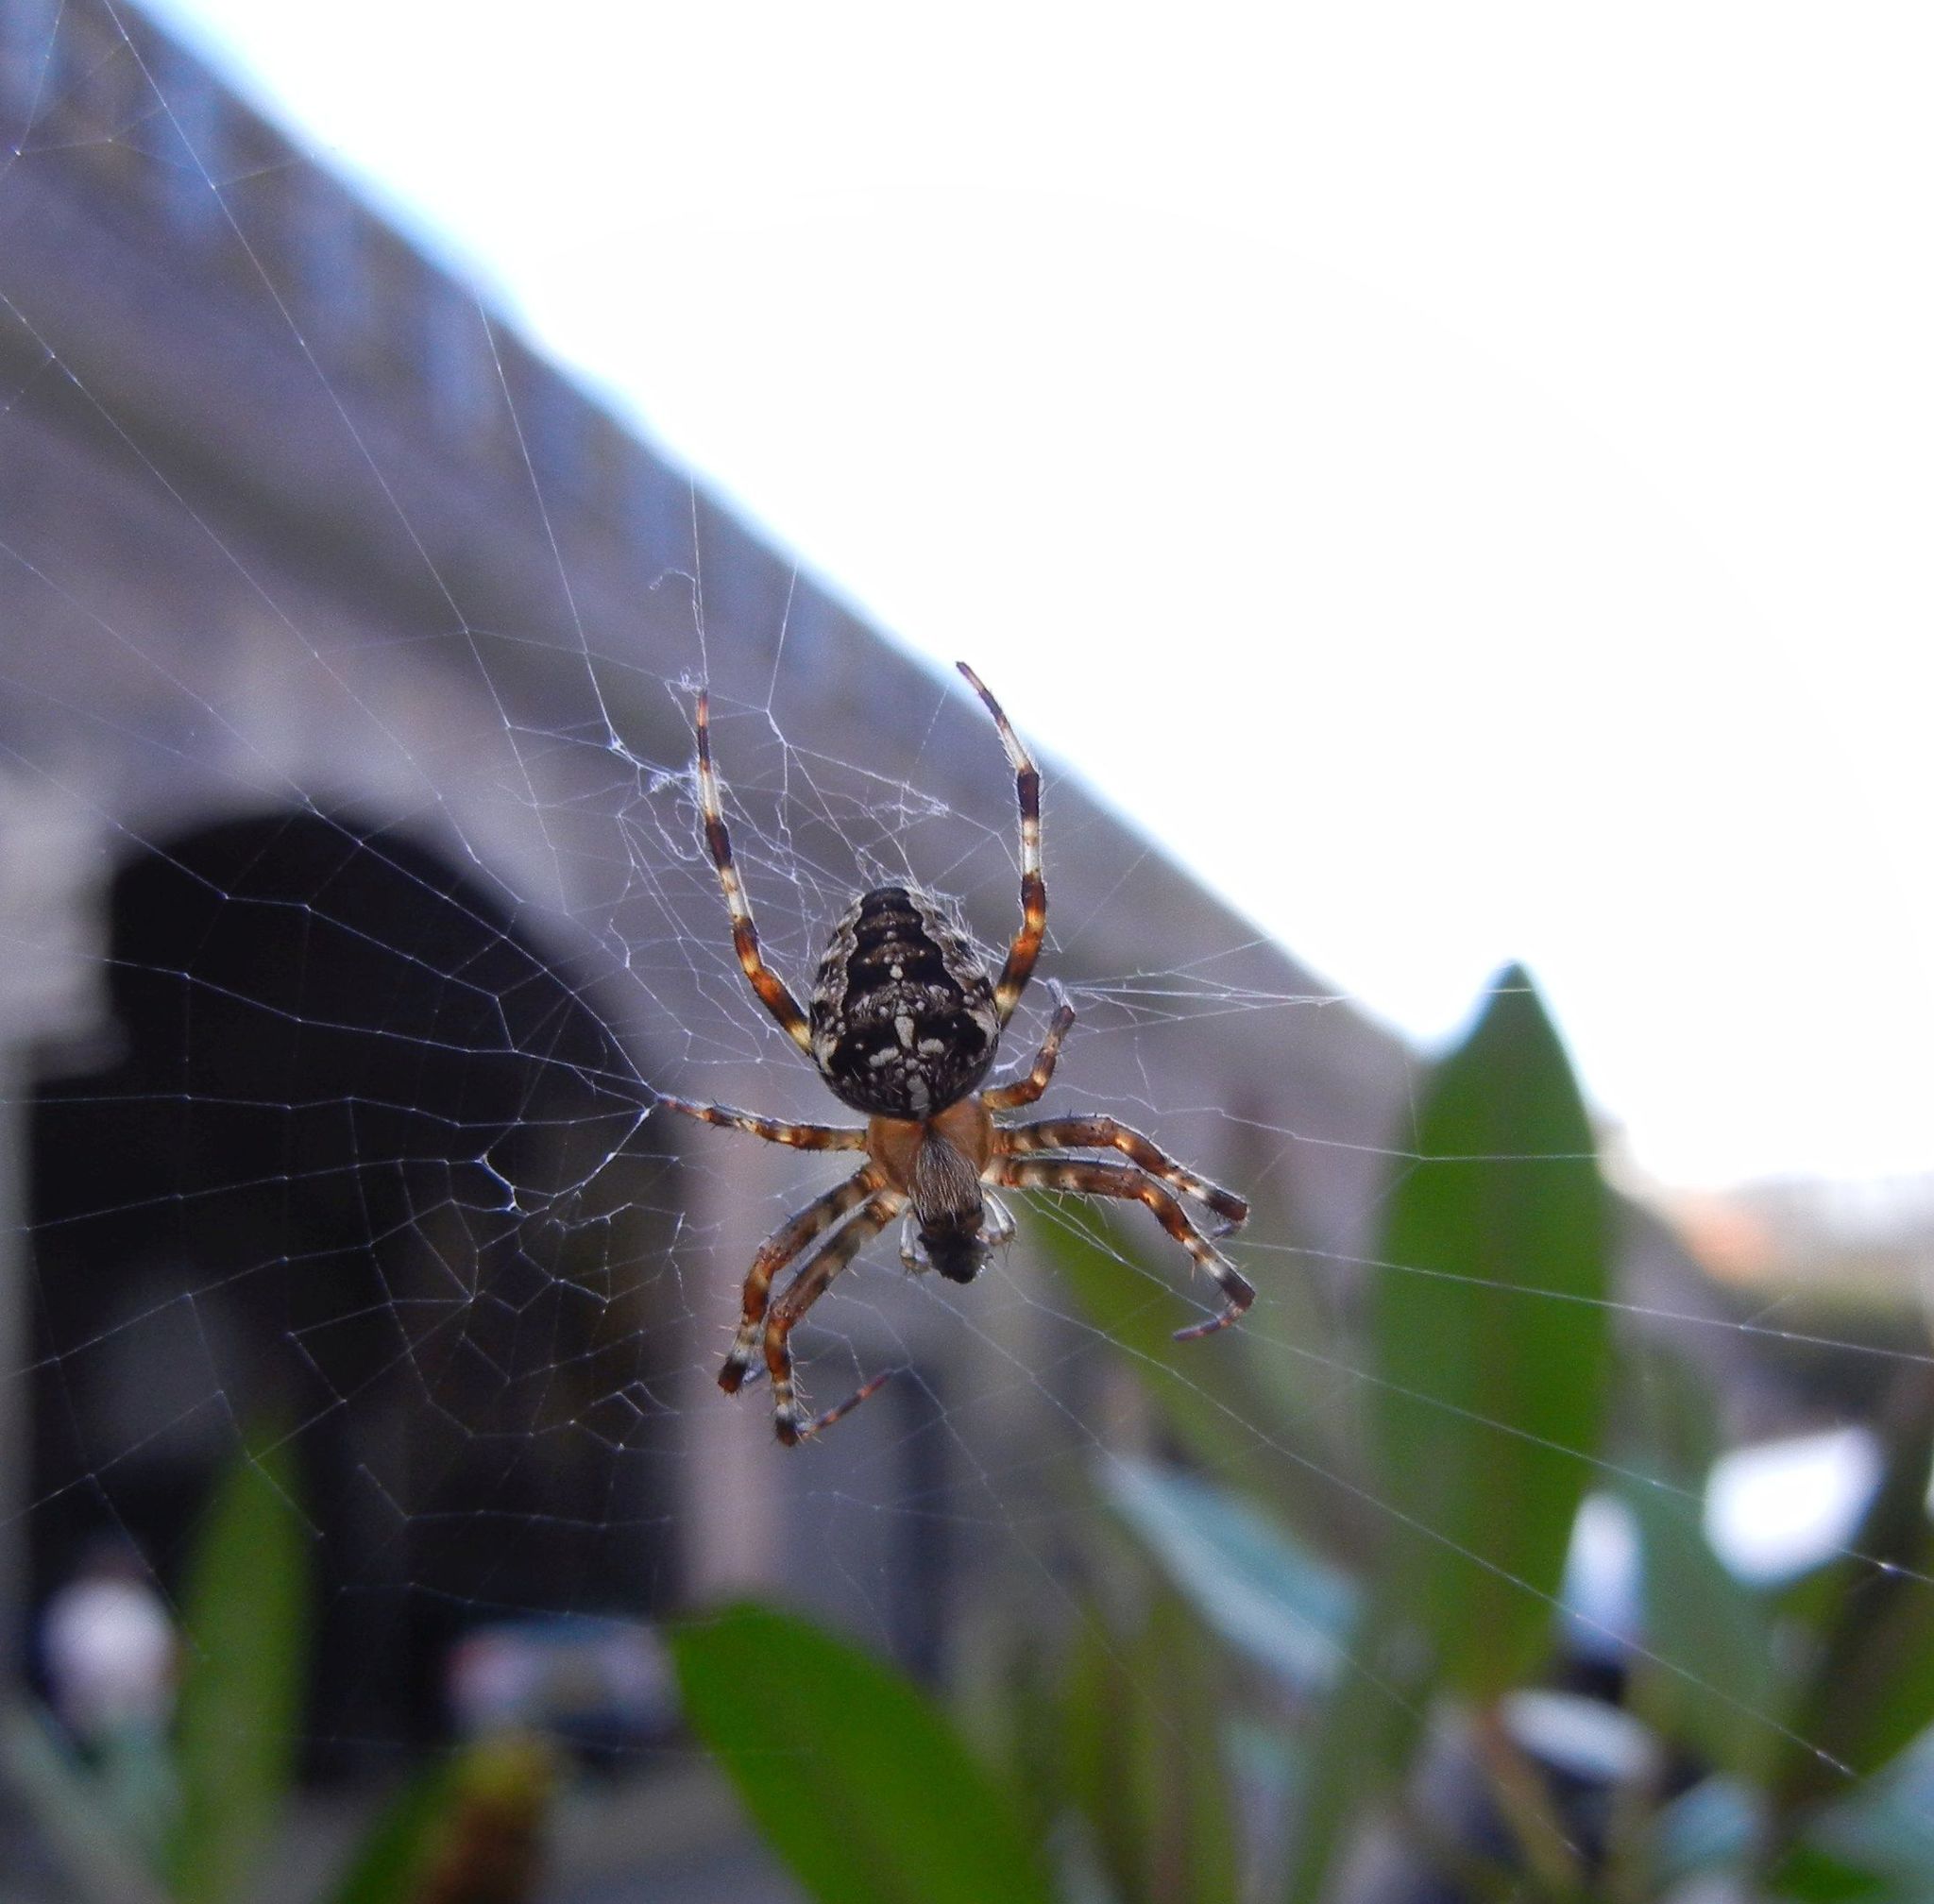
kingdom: Animalia
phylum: Arthropoda
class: Arachnida
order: Araneae
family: Araneidae
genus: Araneus
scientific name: Araneus diadematus
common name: Cross orbweaver
